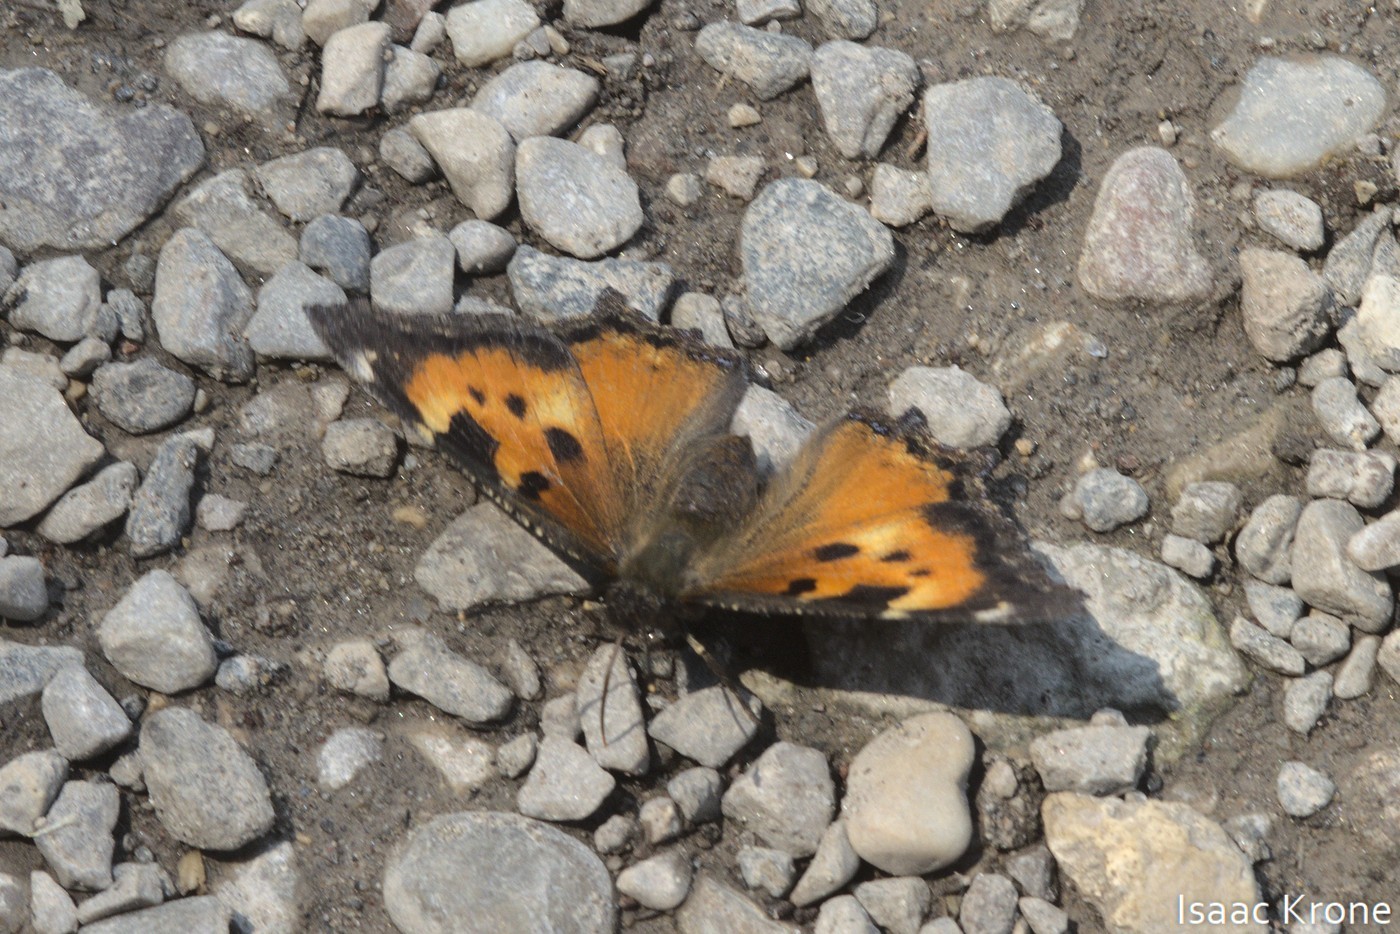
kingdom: Animalia
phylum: Arthropoda
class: Insecta
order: Lepidoptera
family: Nymphalidae
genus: Nymphalis
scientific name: Nymphalis californica
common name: California tortoiseshell
